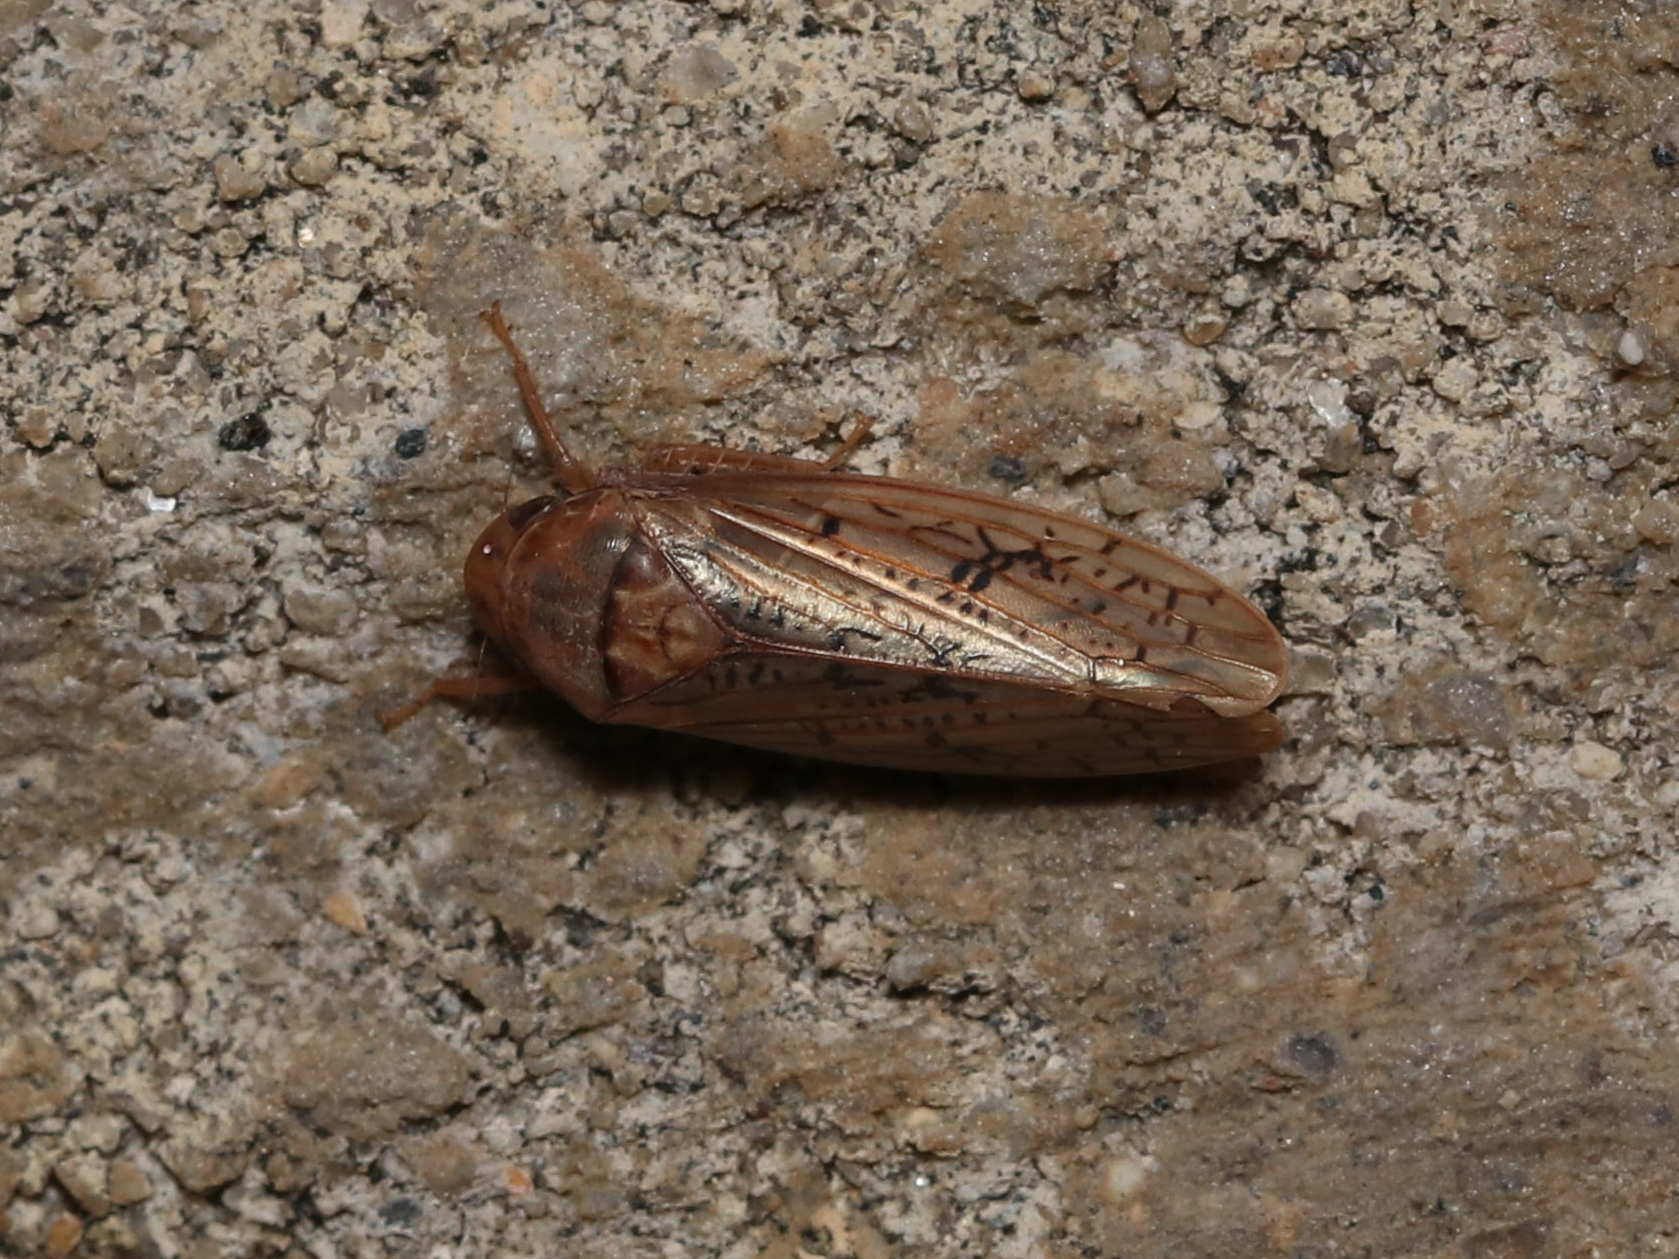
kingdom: Animalia
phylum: Arthropoda
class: Insecta
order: Hemiptera
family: Cicadellidae
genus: Ponana
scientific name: Ponana rubida
